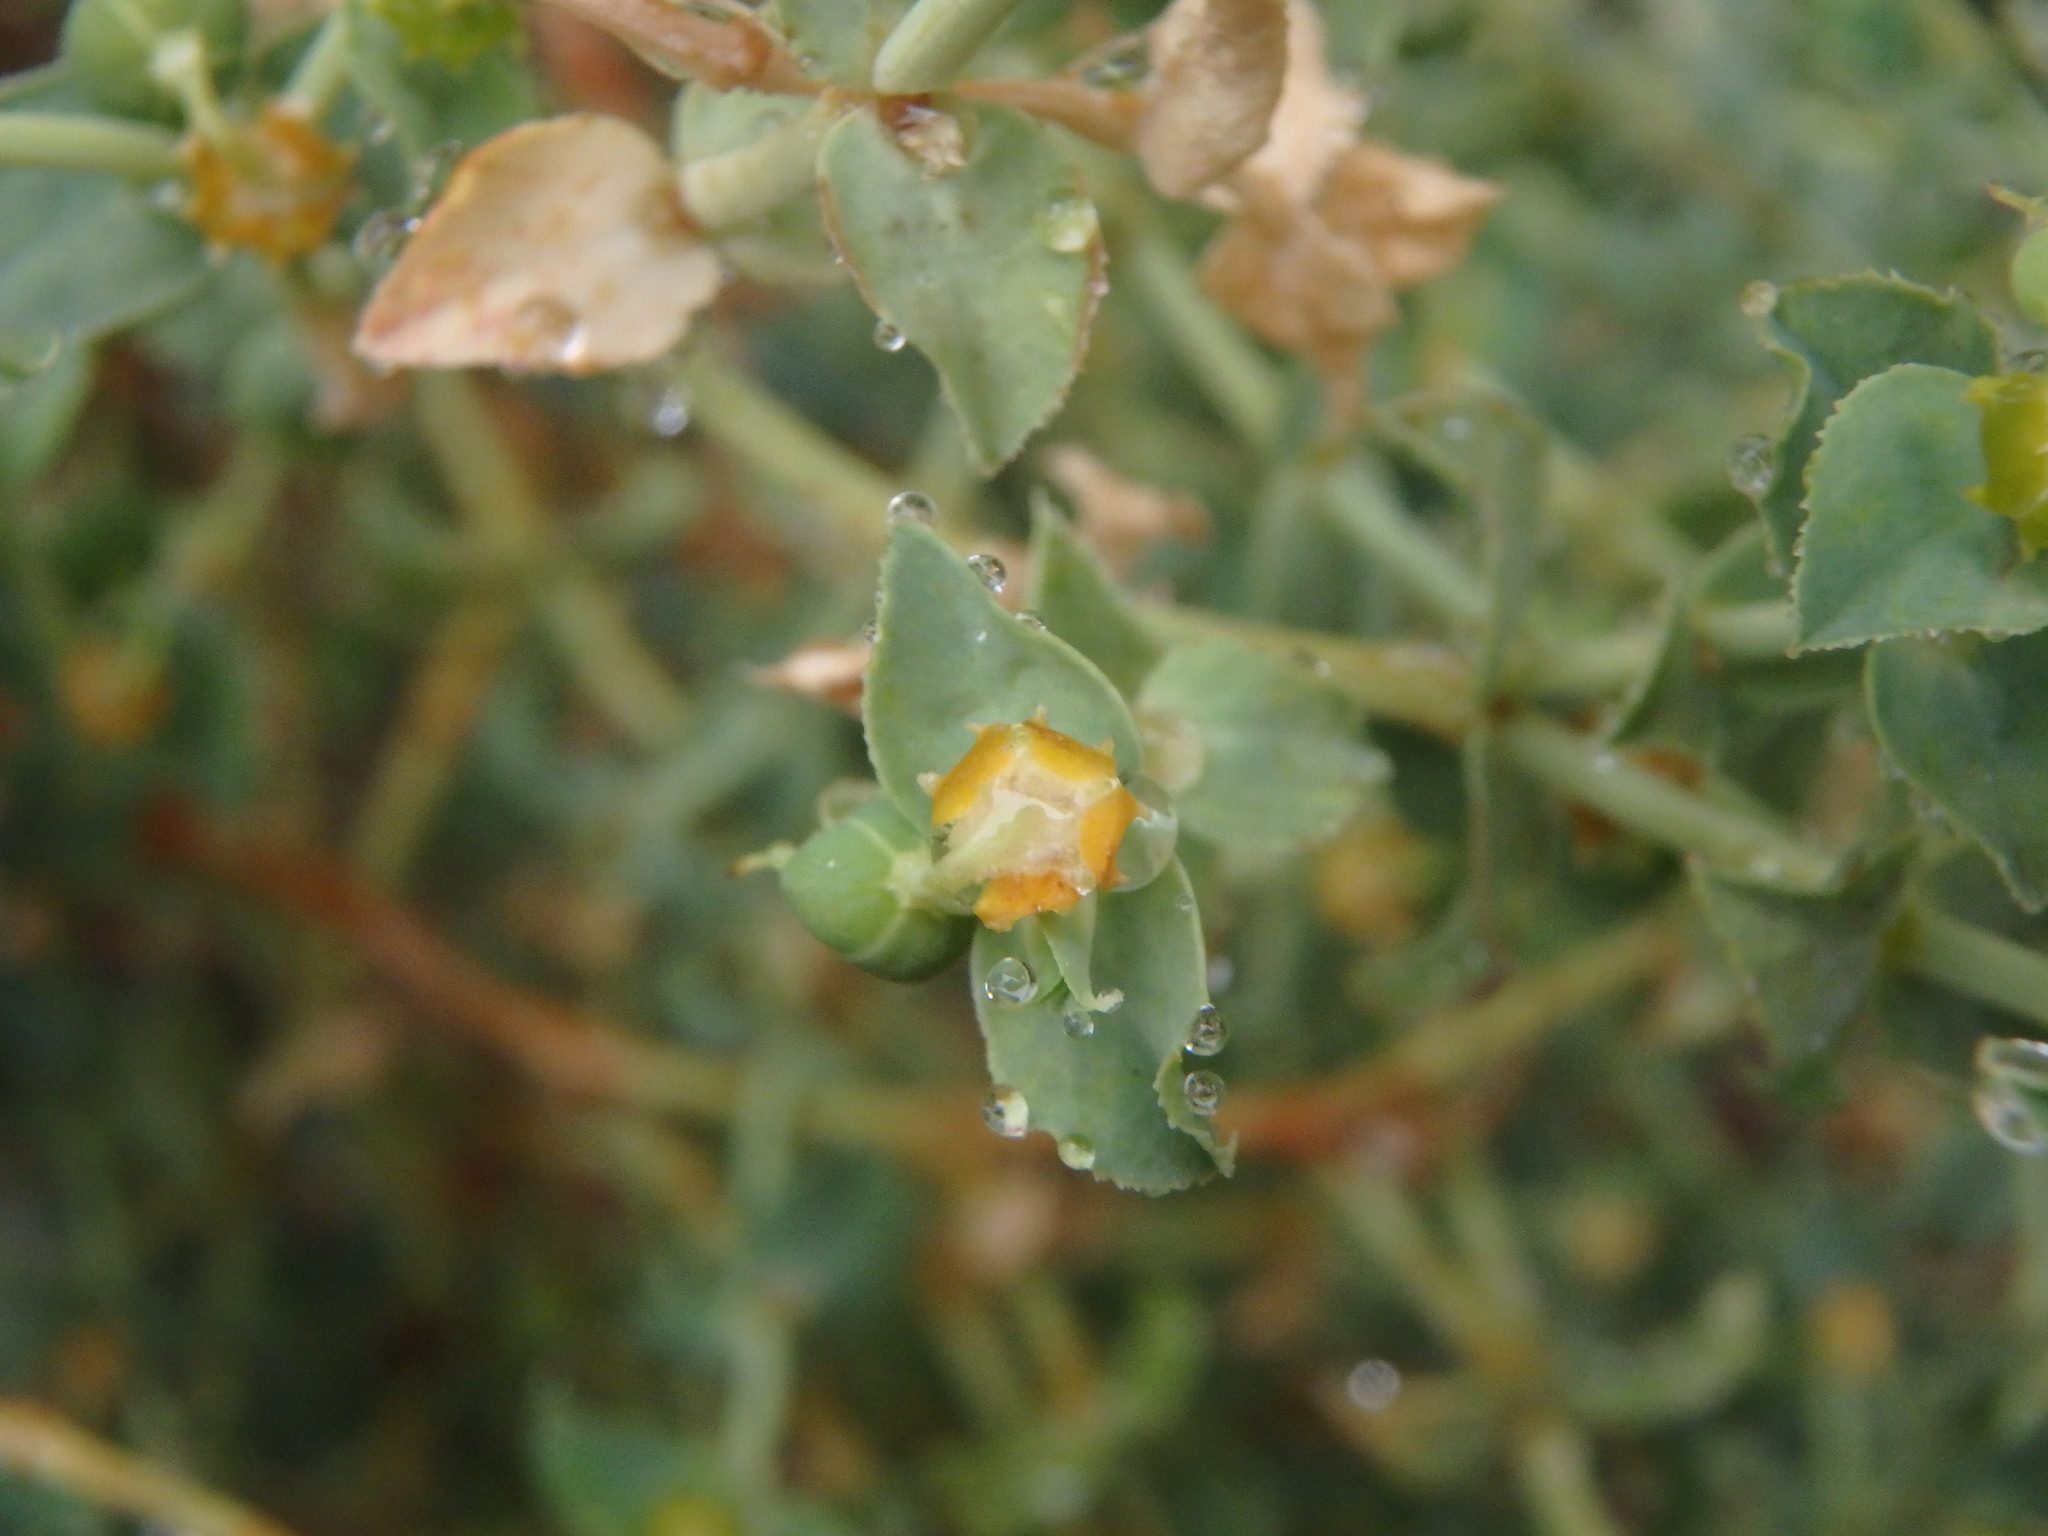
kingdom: Plantae
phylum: Tracheophyta
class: Magnoliopsida
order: Malpighiales
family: Euphorbiaceae
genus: Euphorbia
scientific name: Euphorbia pithyusa
